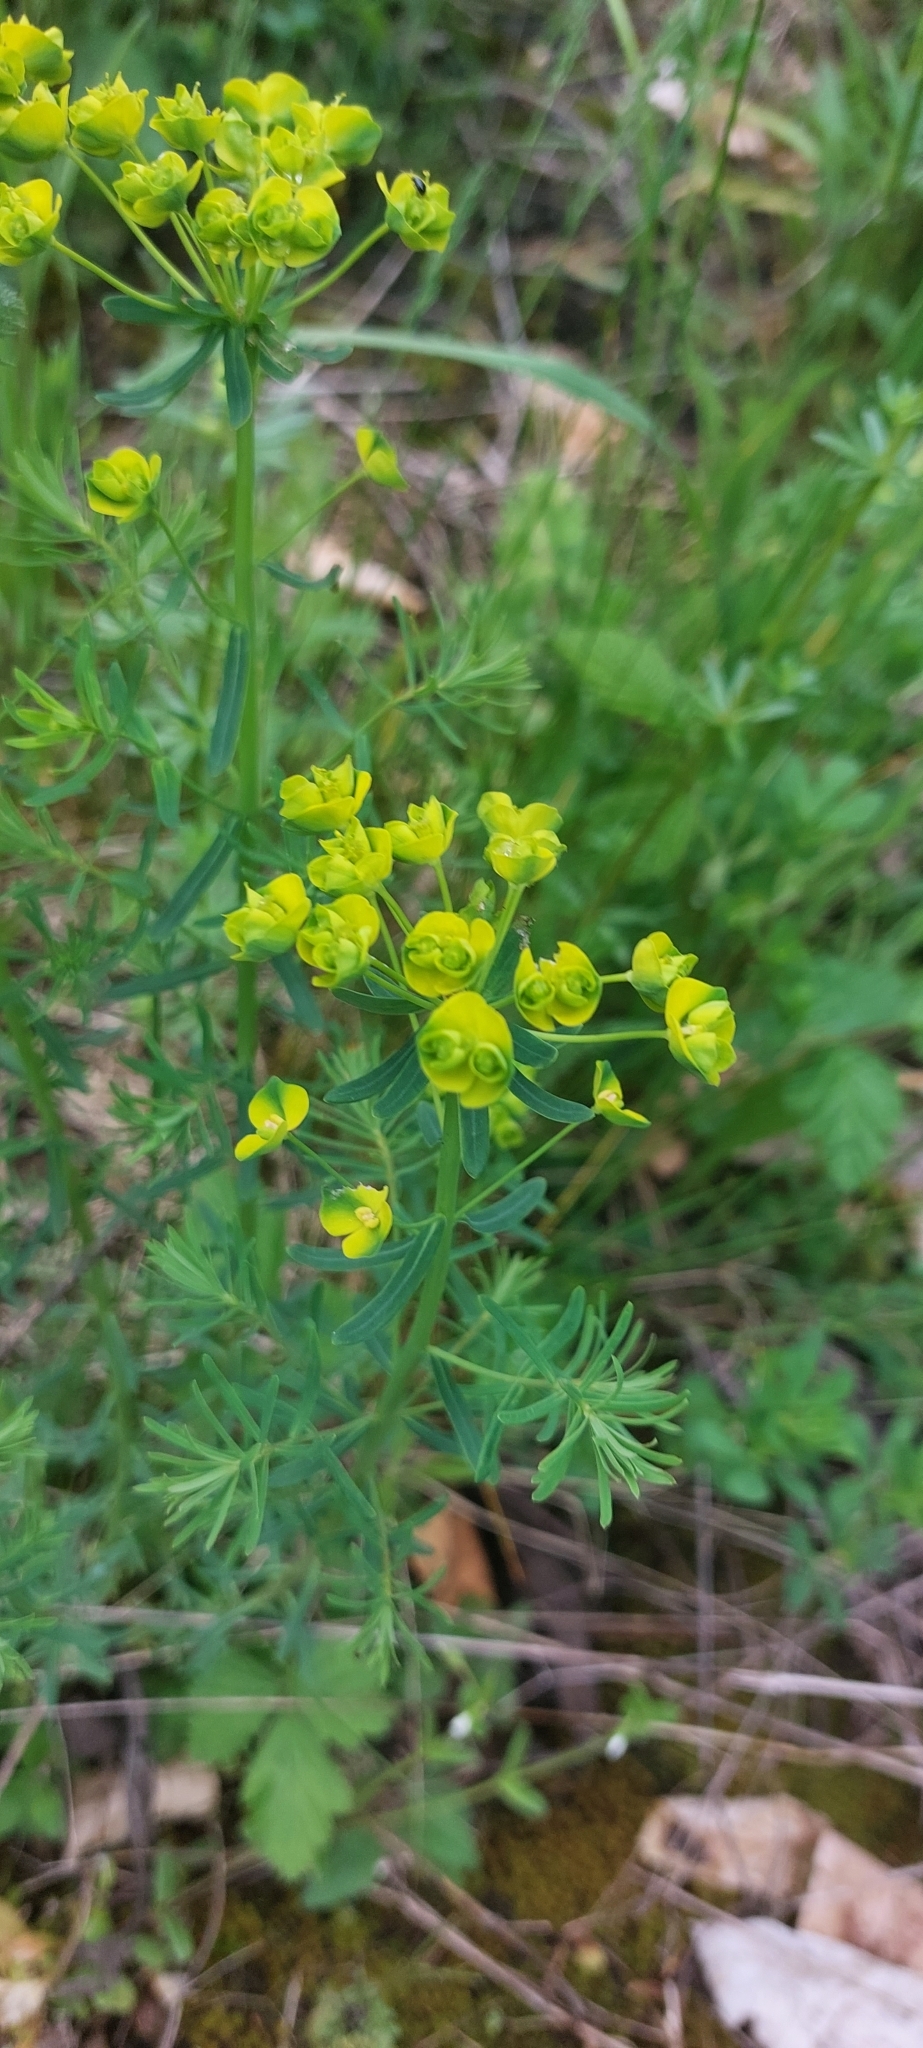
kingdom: Plantae
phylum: Tracheophyta
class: Magnoliopsida
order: Malpighiales
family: Euphorbiaceae
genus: Euphorbia
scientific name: Euphorbia cyparissias
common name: Cypress spurge
